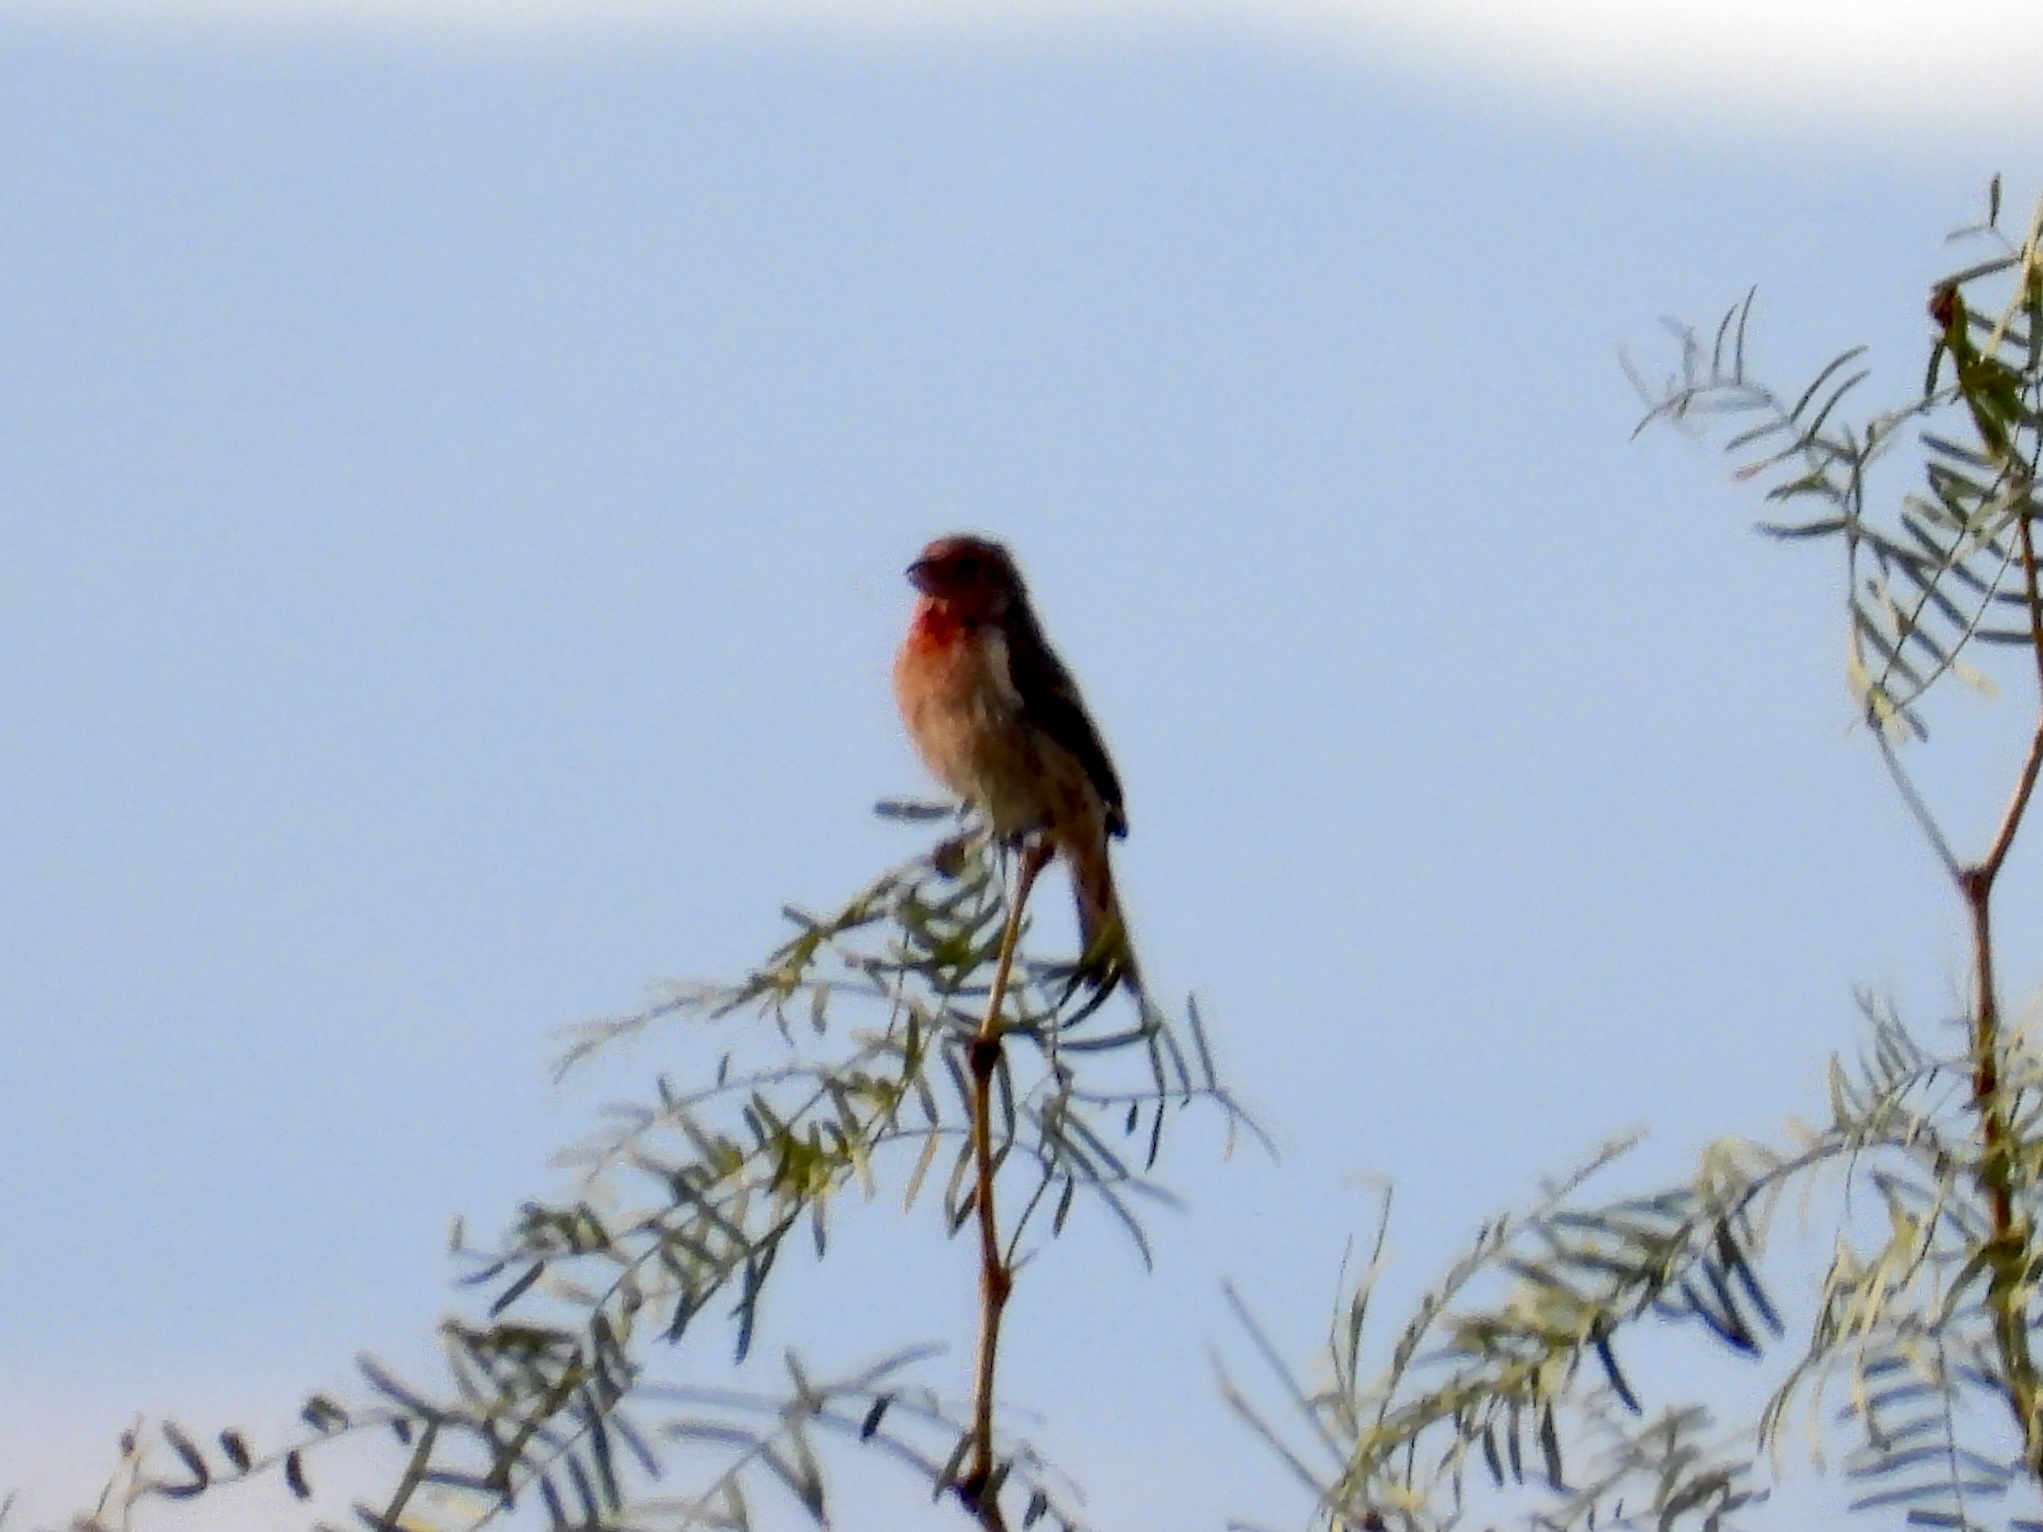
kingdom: Animalia
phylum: Chordata
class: Aves
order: Passeriformes
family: Fringillidae
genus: Haemorhous
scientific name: Haemorhous mexicanus
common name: House finch
